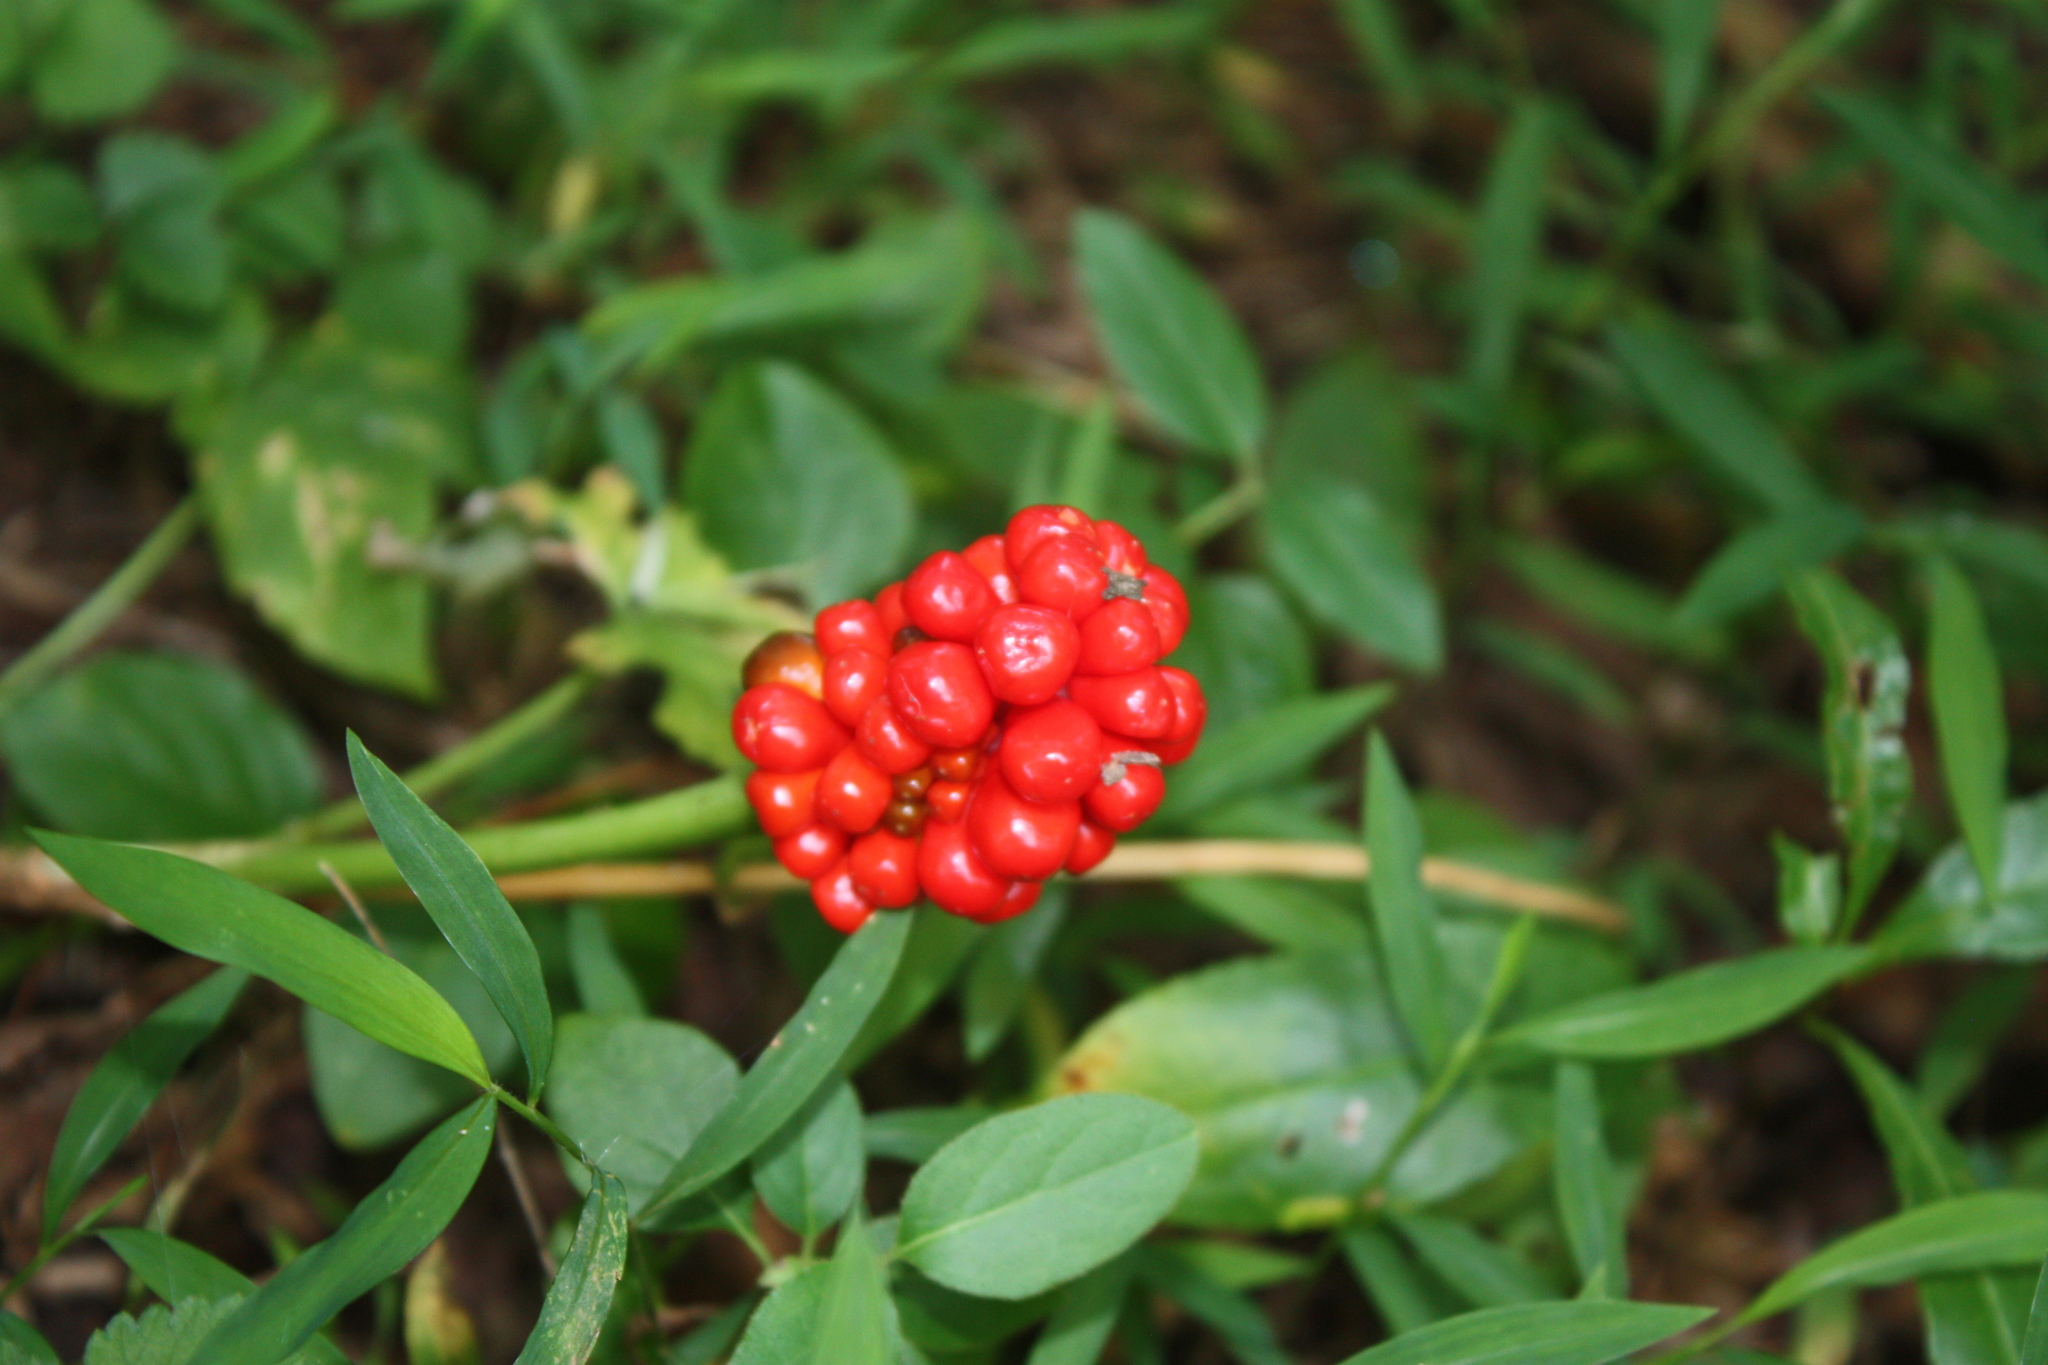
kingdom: Plantae
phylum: Tracheophyta
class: Liliopsida
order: Alismatales
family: Araceae
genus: Arisaema
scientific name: Arisaema triphyllum
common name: Jack-in-the-pulpit
